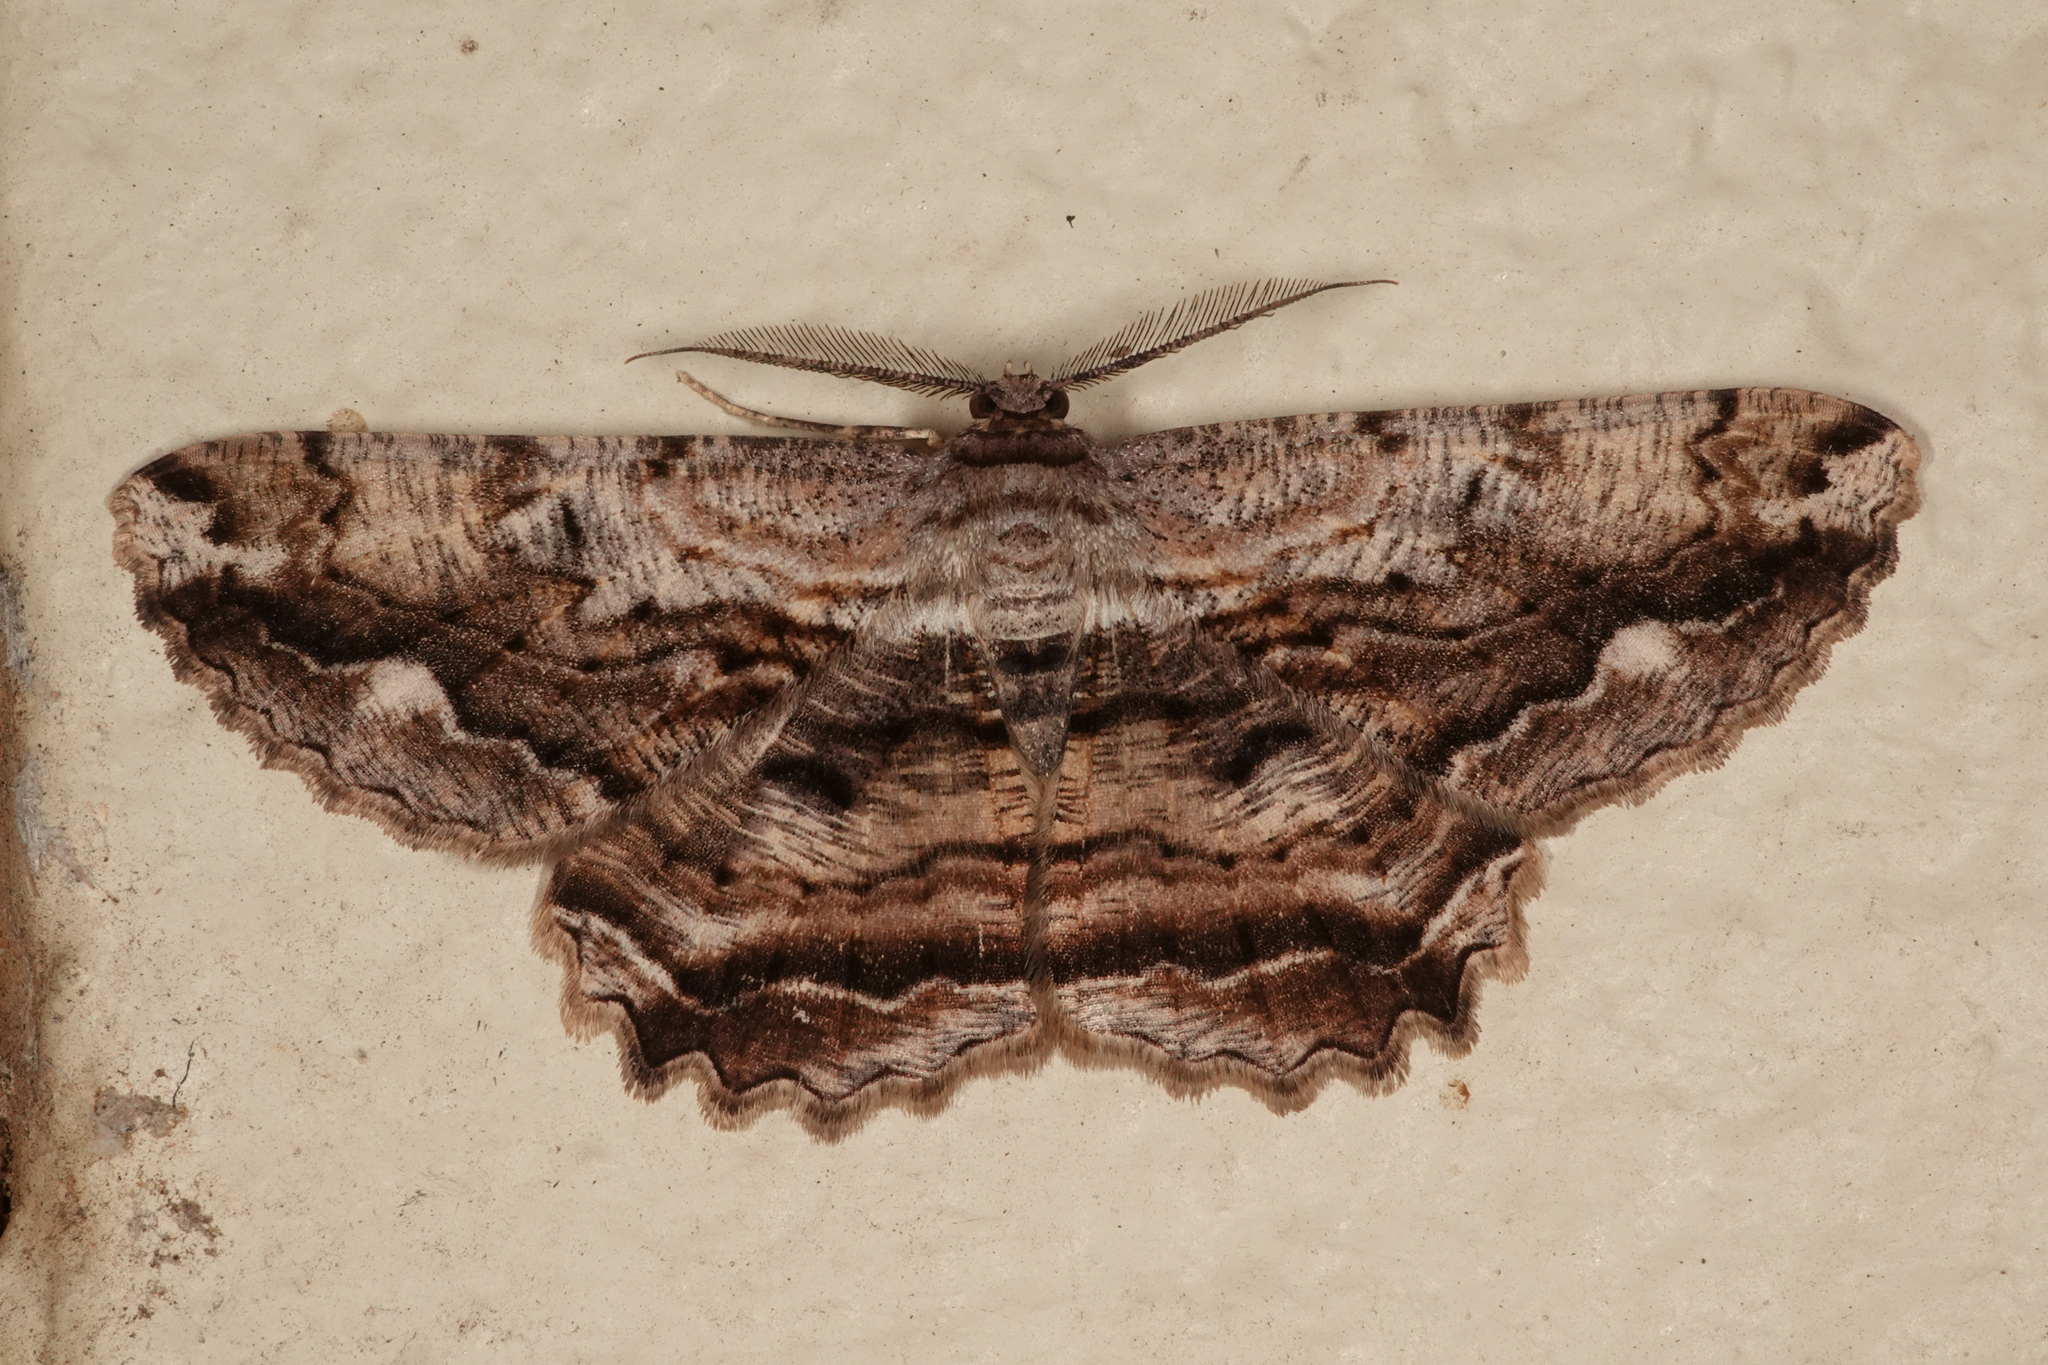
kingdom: Animalia
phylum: Arthropoda
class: Insecta
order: Lepidoptera
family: Geometridae
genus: Scioglyptis
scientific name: Scioglyptis lyciaria
